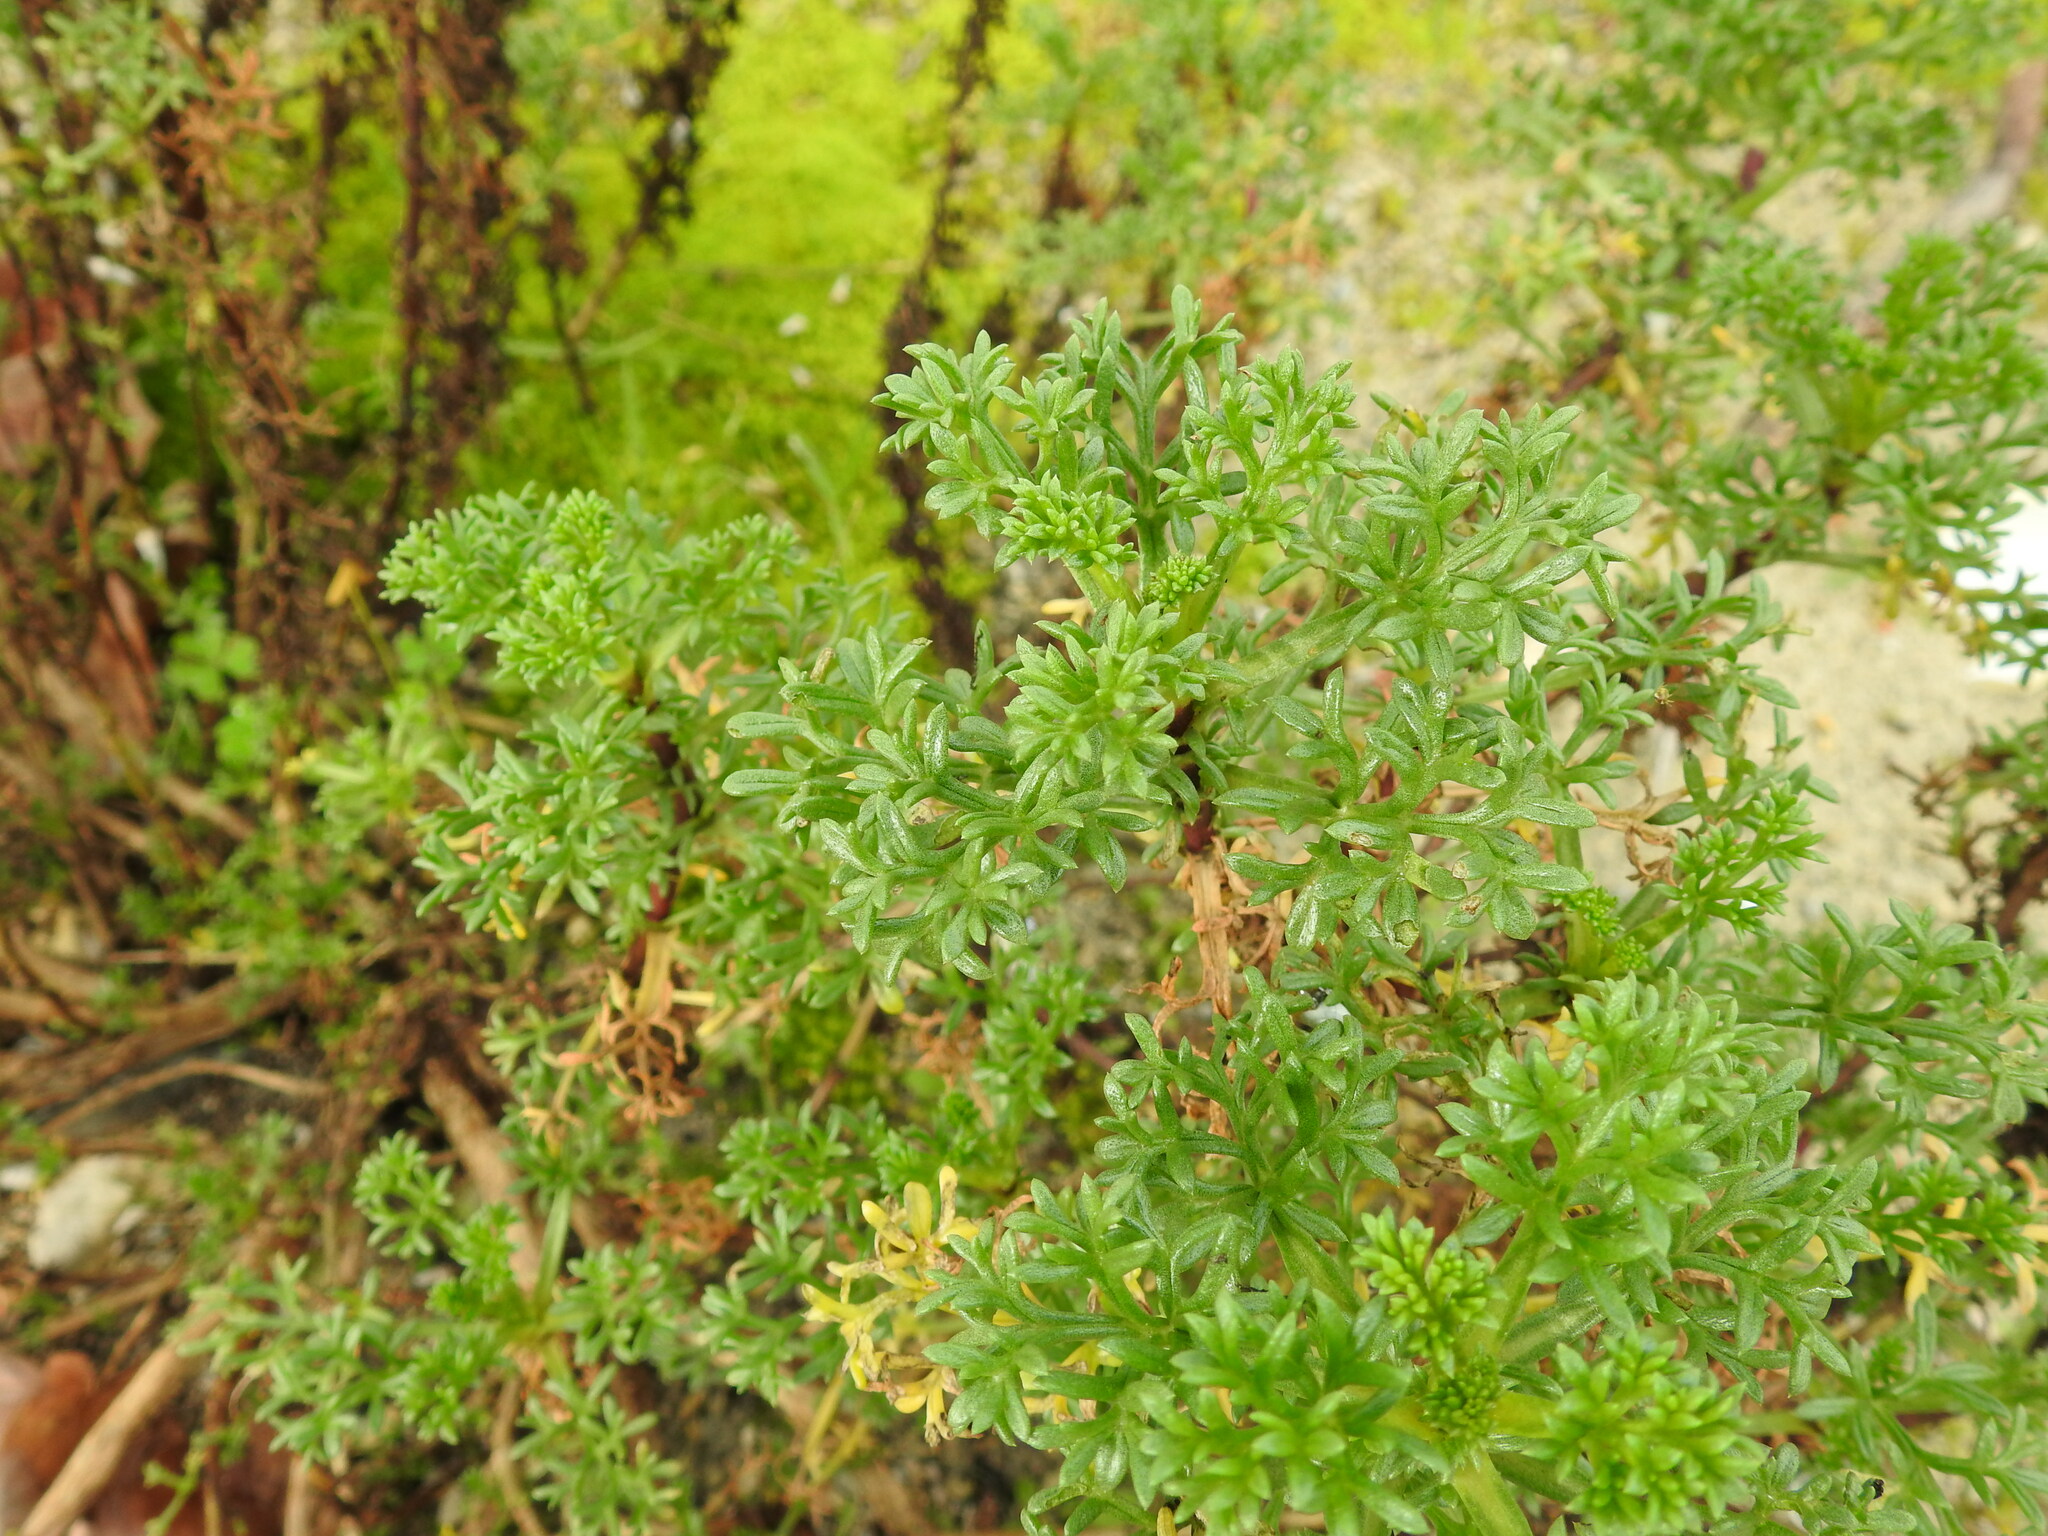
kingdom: Plantae
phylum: Tracheophyta
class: Magnoliopsida
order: Asterales
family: Asteraceae
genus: Artemisia
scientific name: Artemisia crithmifolia
